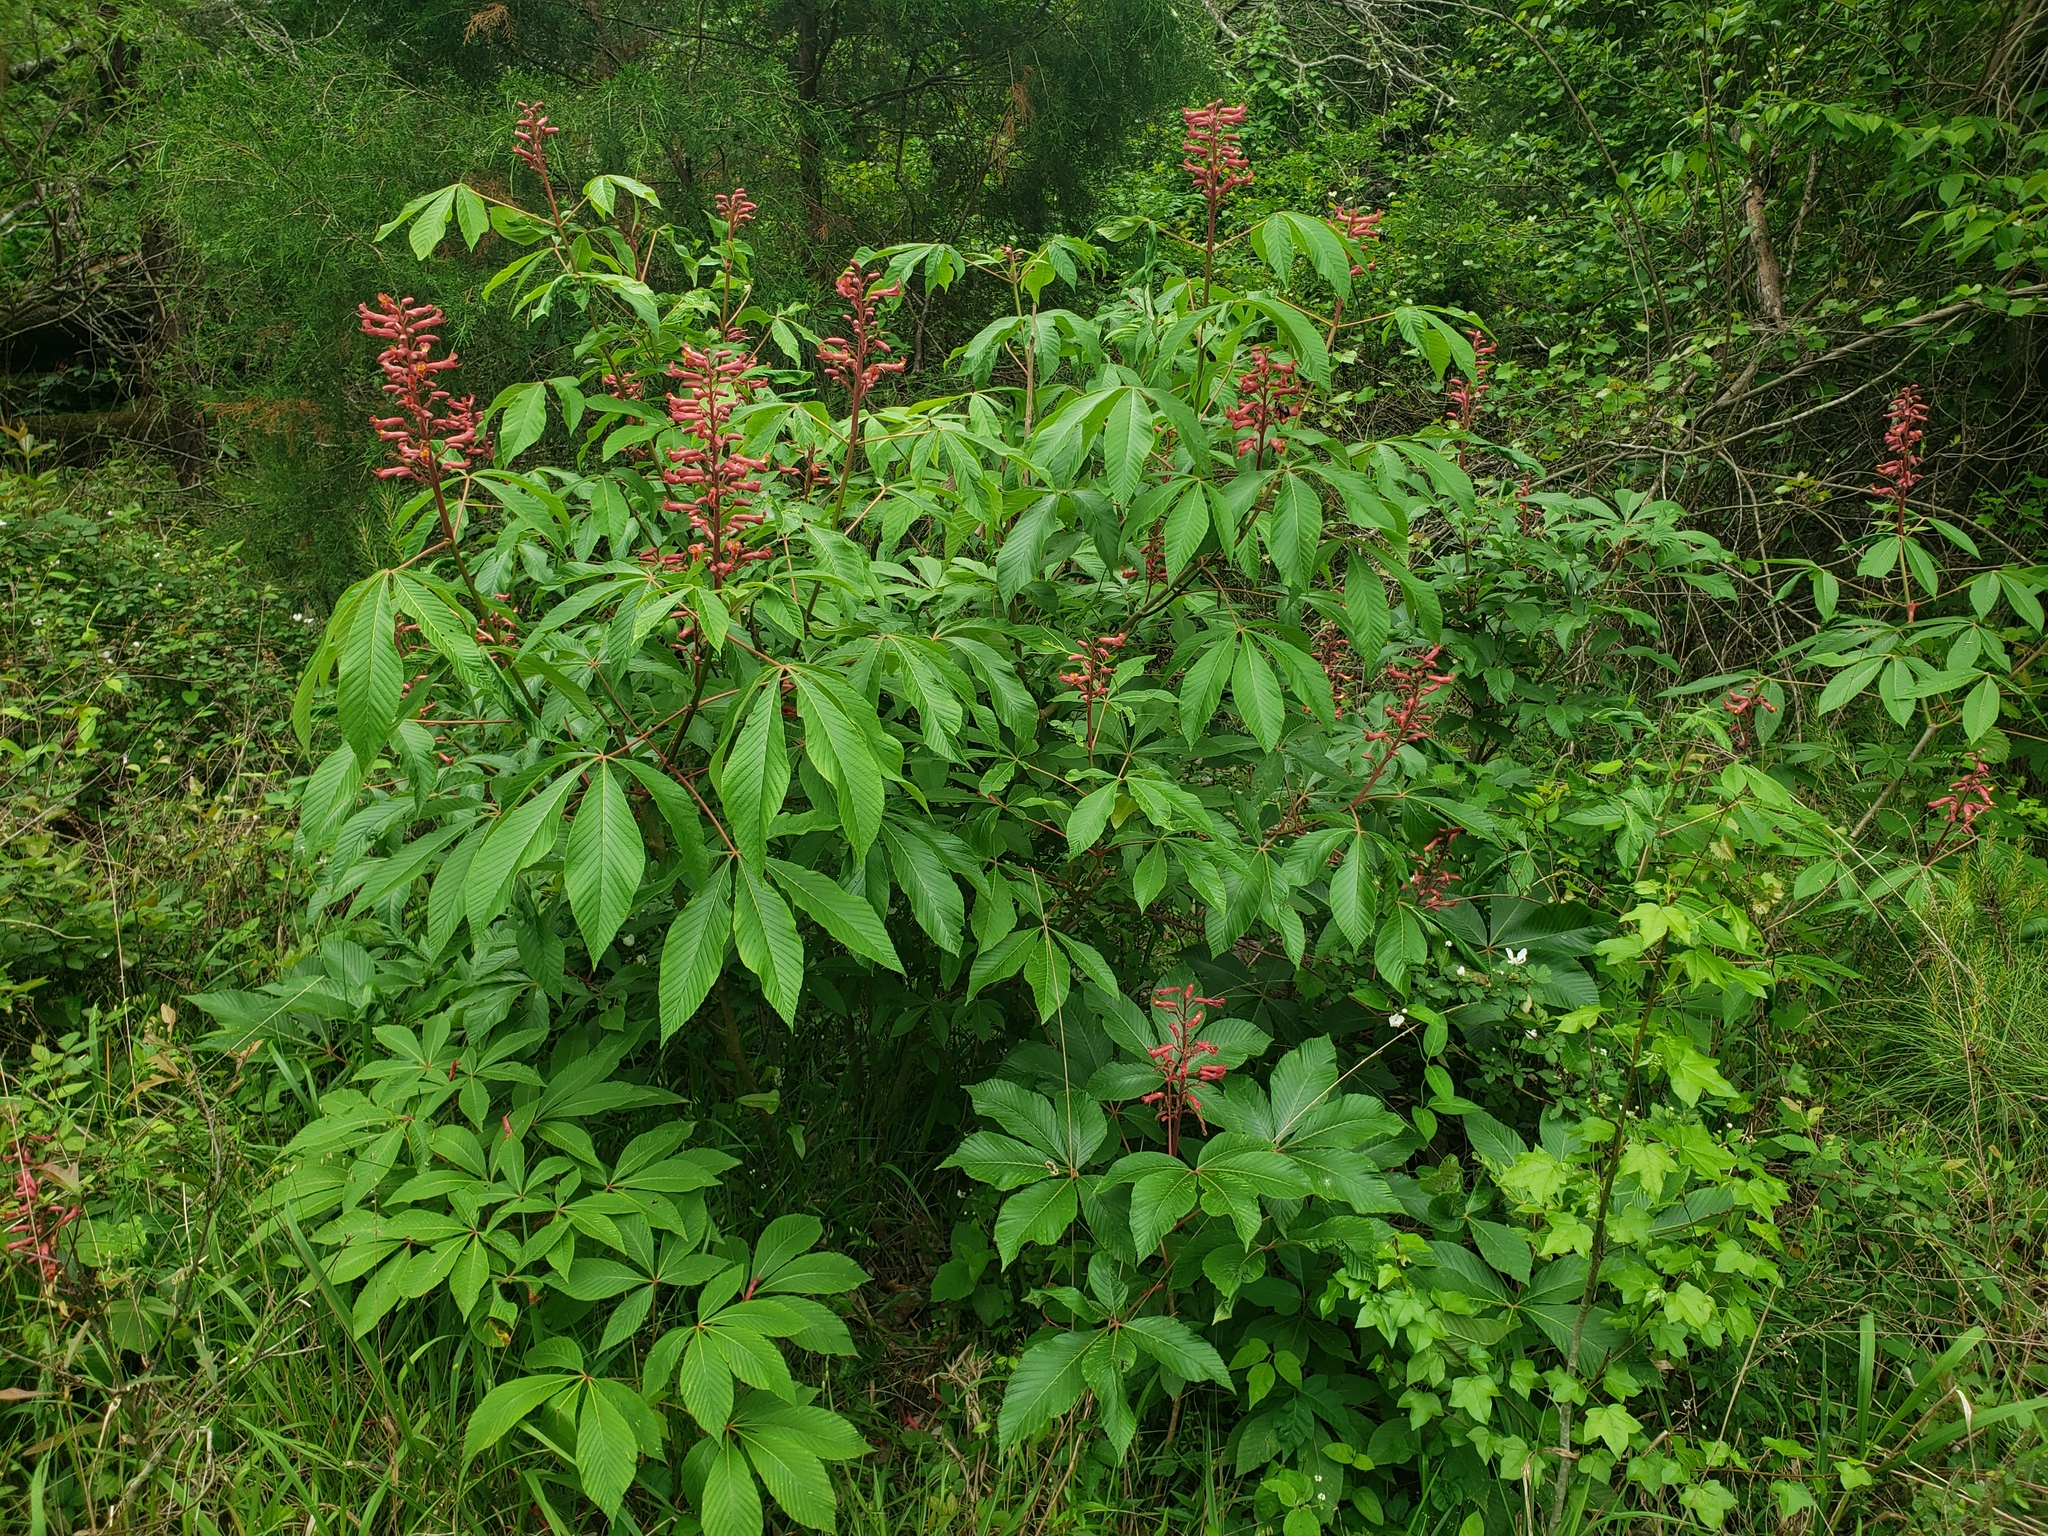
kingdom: Plantae
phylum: Tracheophyta
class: Magnoliopsida
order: Sapindales
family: Sapindaceae
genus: Aesculus
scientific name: Aesculus pavia
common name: Red buckeye
